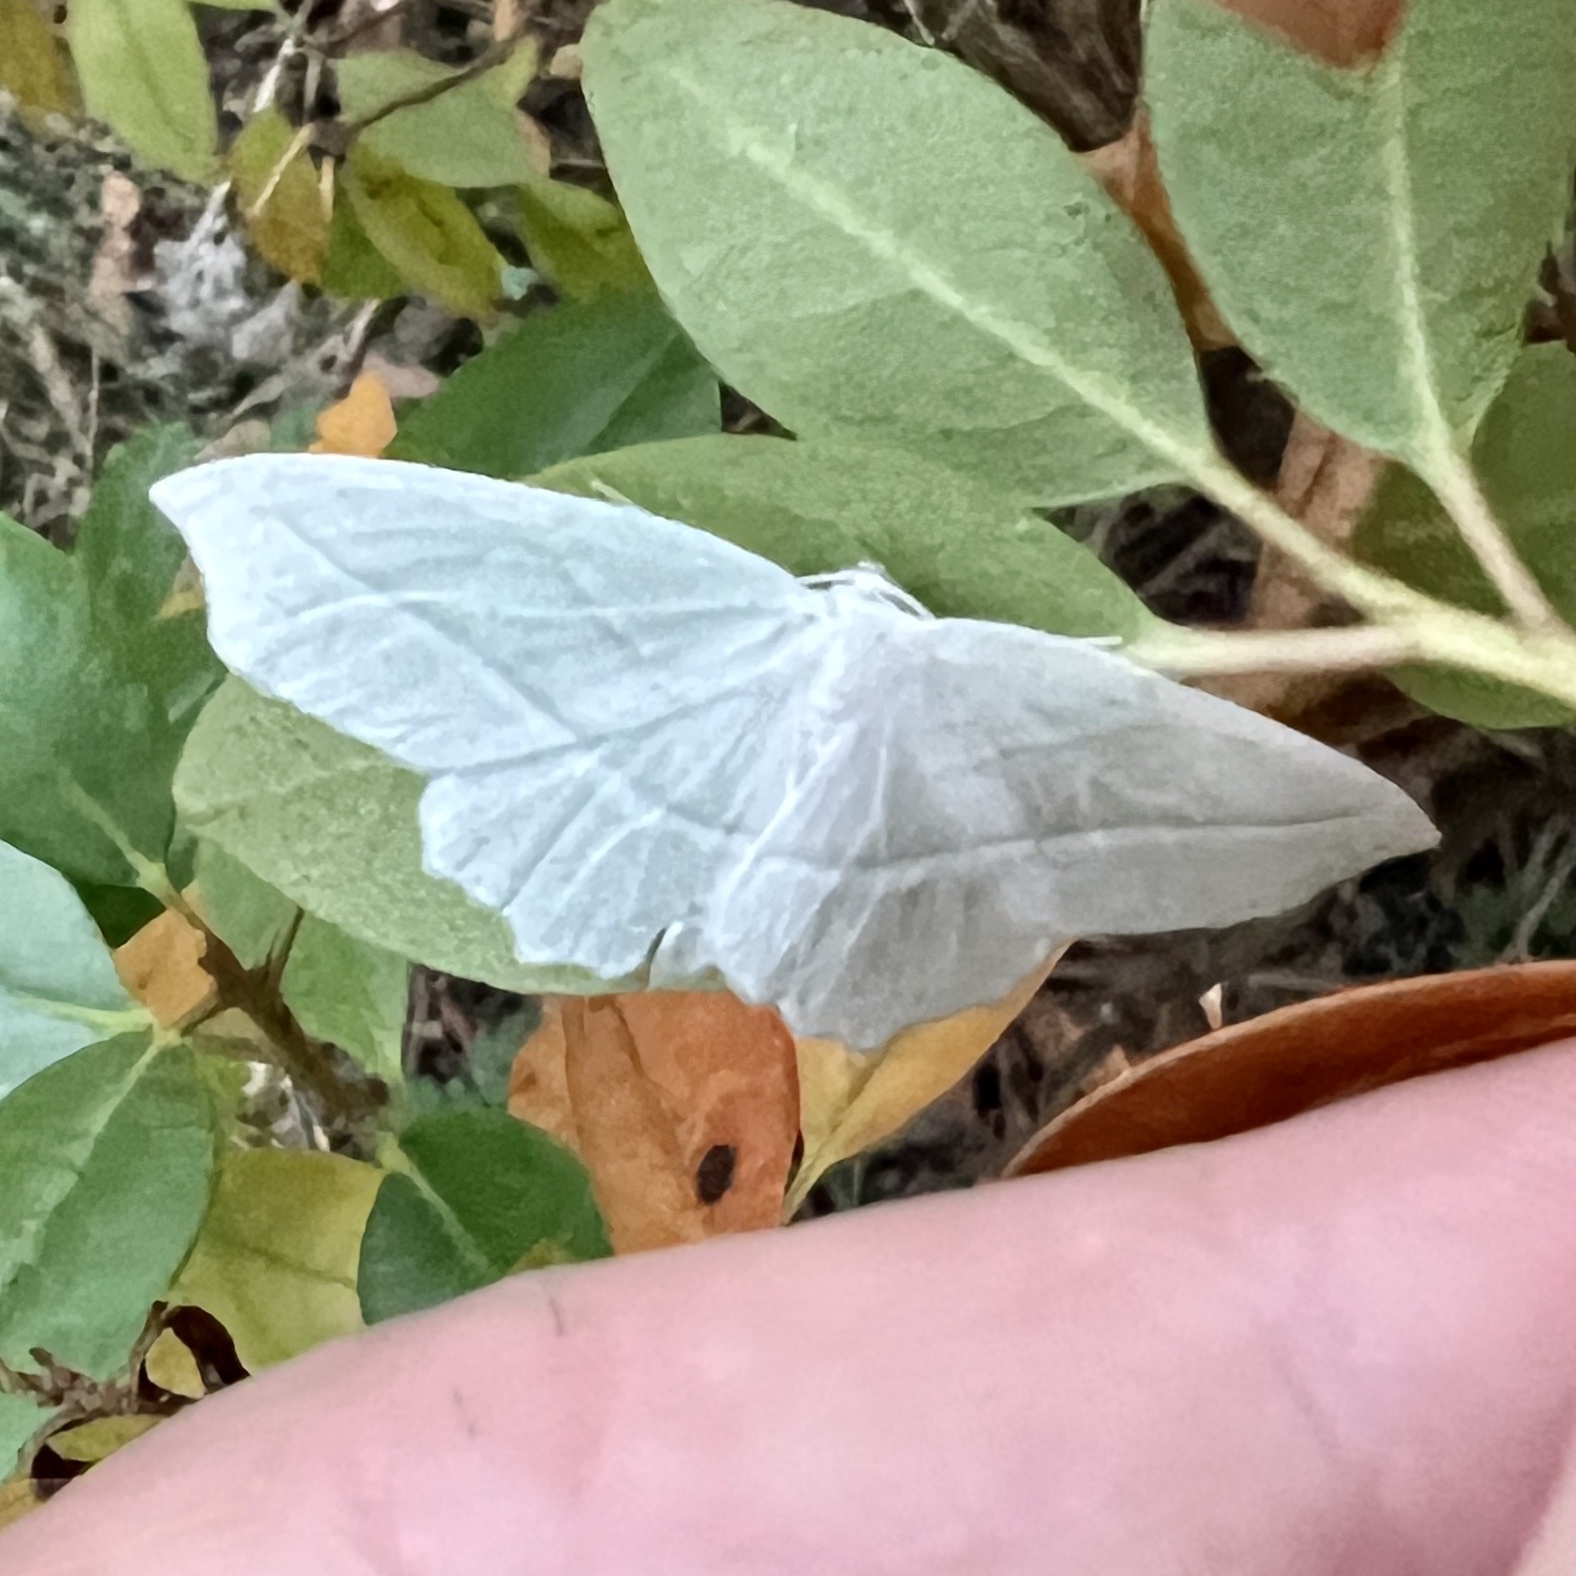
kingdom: Animalia
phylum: Arthropoda
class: Insecta
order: Lepidoptera
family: Geometridae
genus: Campaea
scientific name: Campaea perlata
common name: Fringed looper
